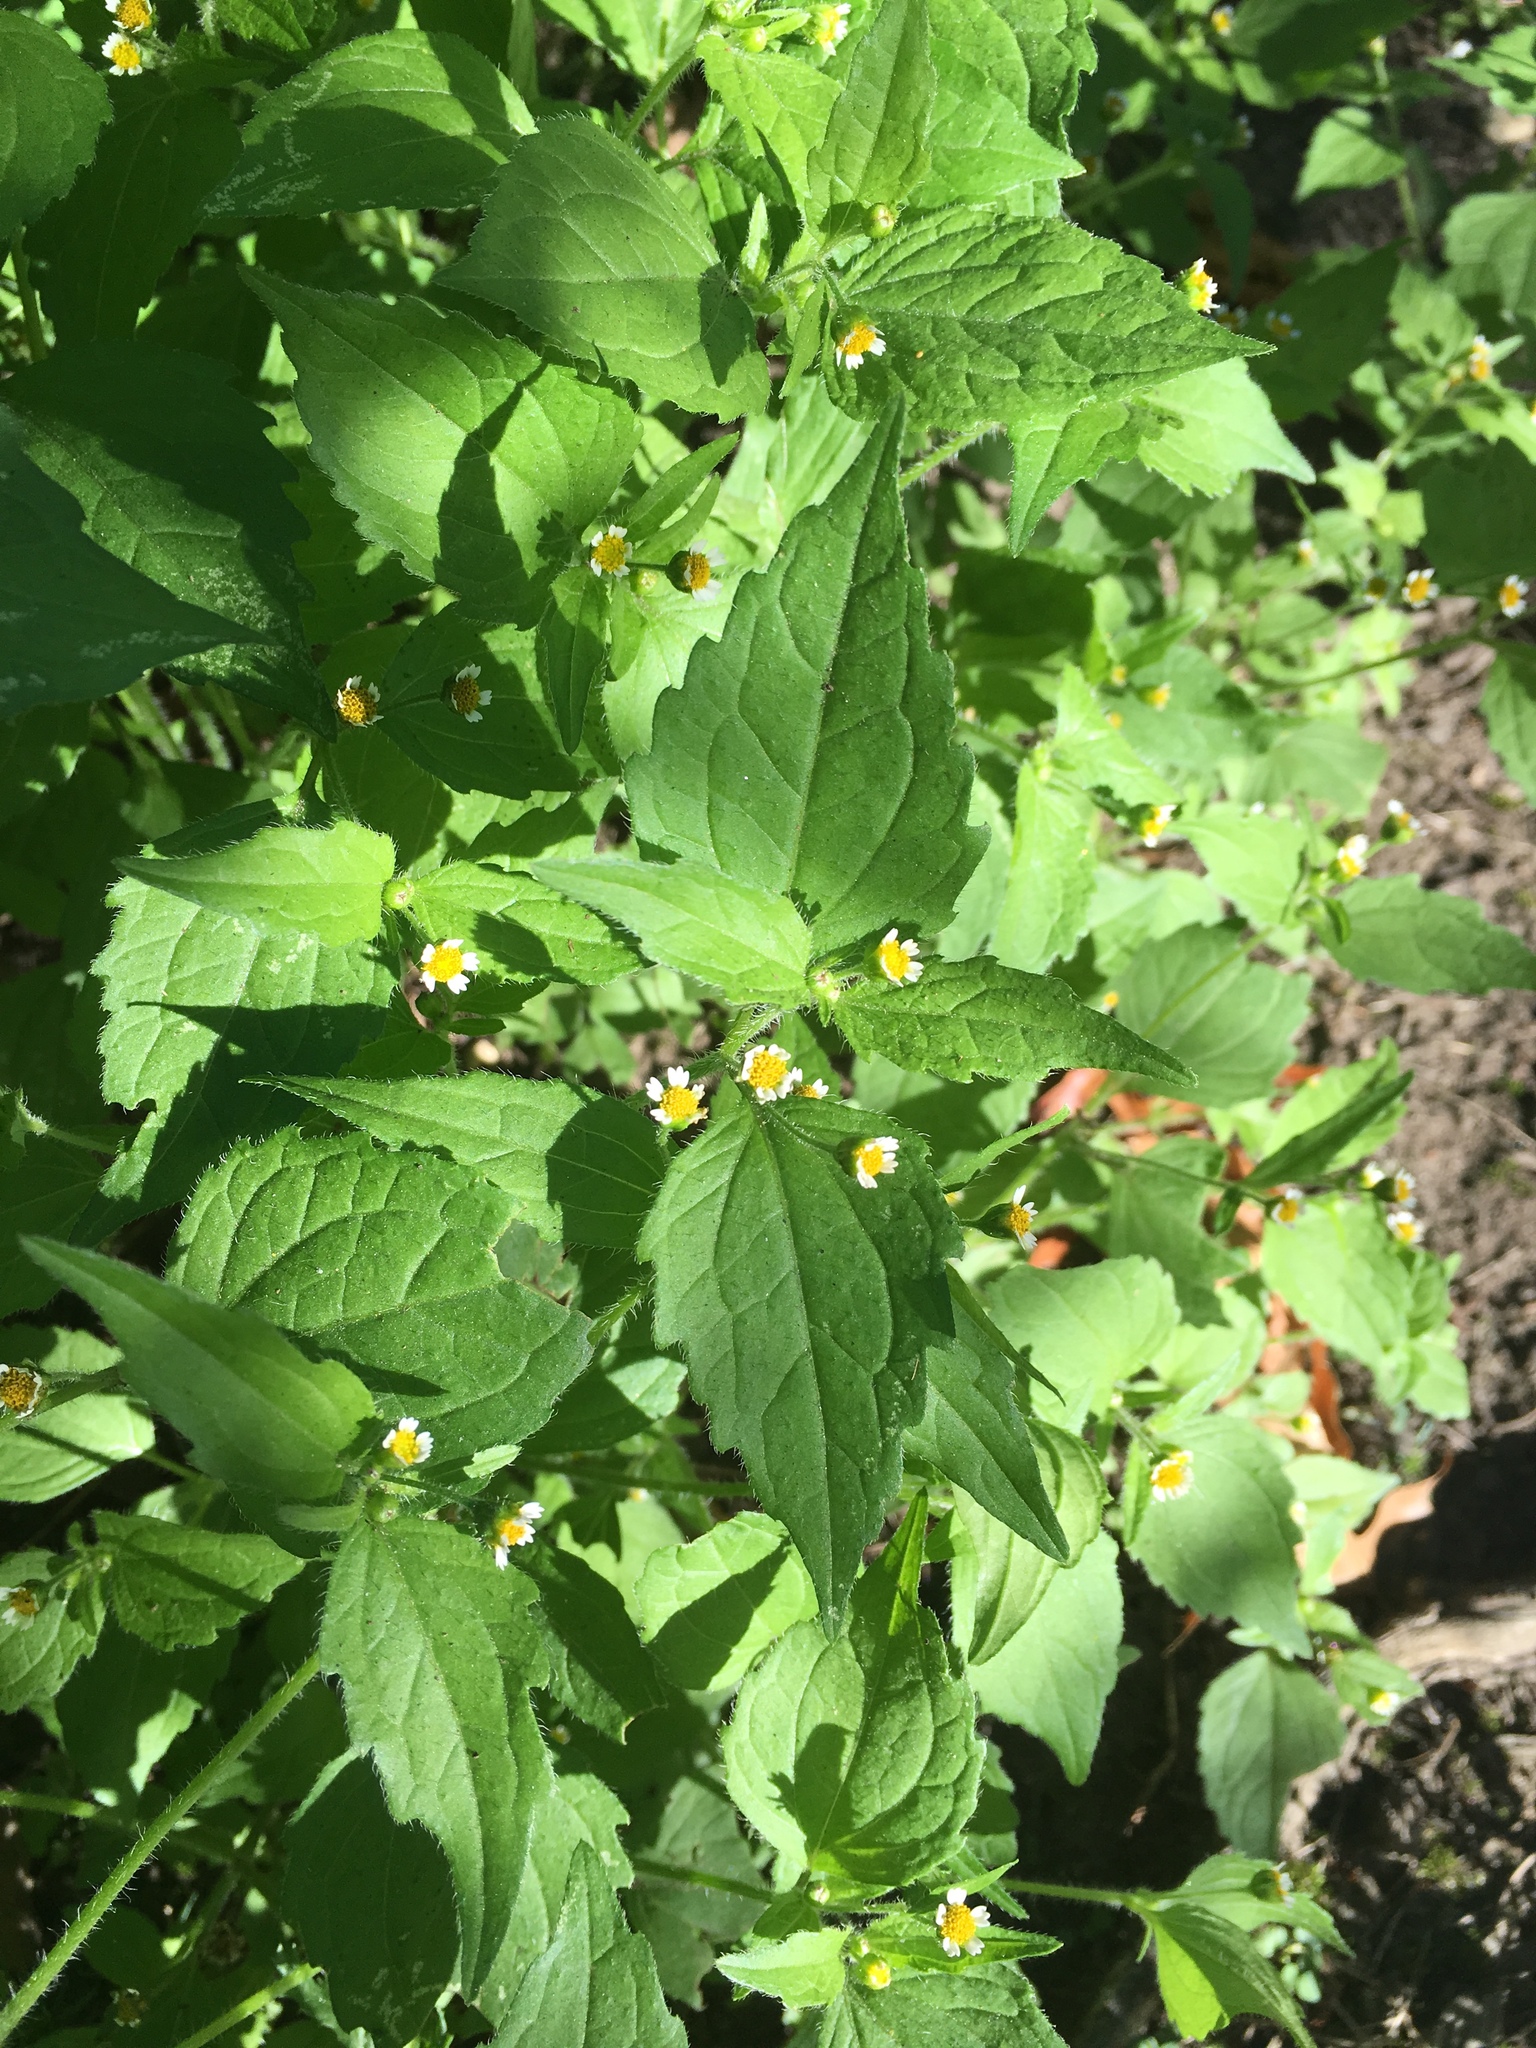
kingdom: Plantae
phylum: Tracheophyta
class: Magnoliopsida
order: Asterales
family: Asteraceae
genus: Galinsoga
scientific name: Galinsoga quadriradiata
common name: Shaggy soldier
